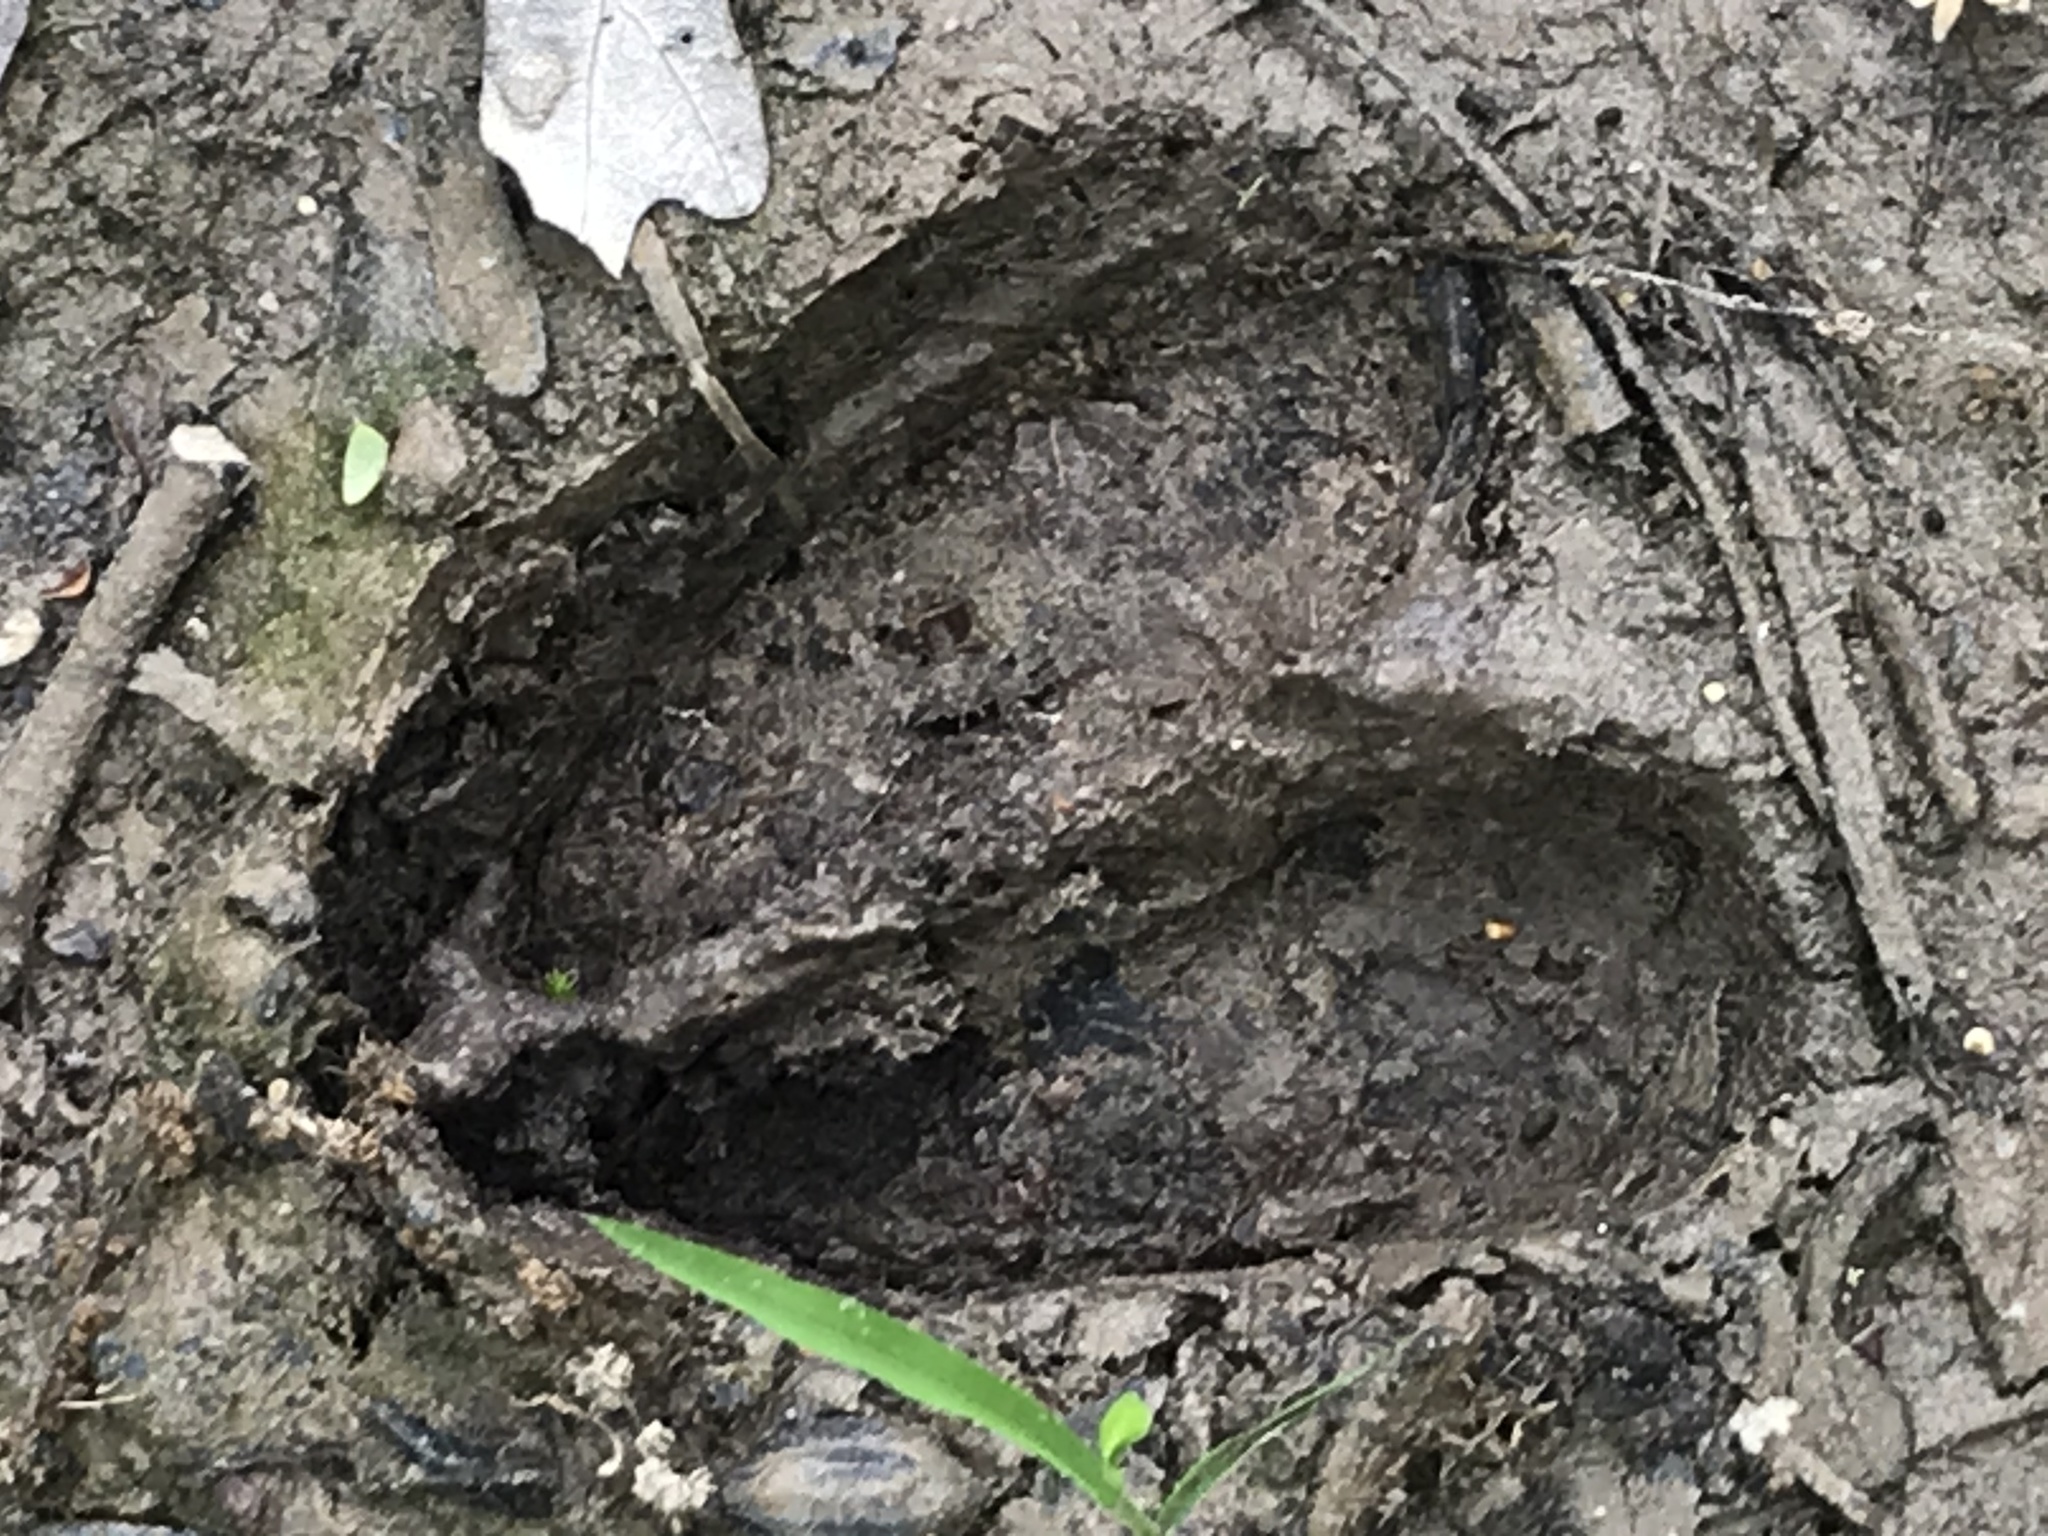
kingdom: Animalia
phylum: Chordata
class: Mammalia
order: Artiodactyla
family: Cervidae
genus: Odocoileus
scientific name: Odocoileus virginianus
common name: White-tailed deer
